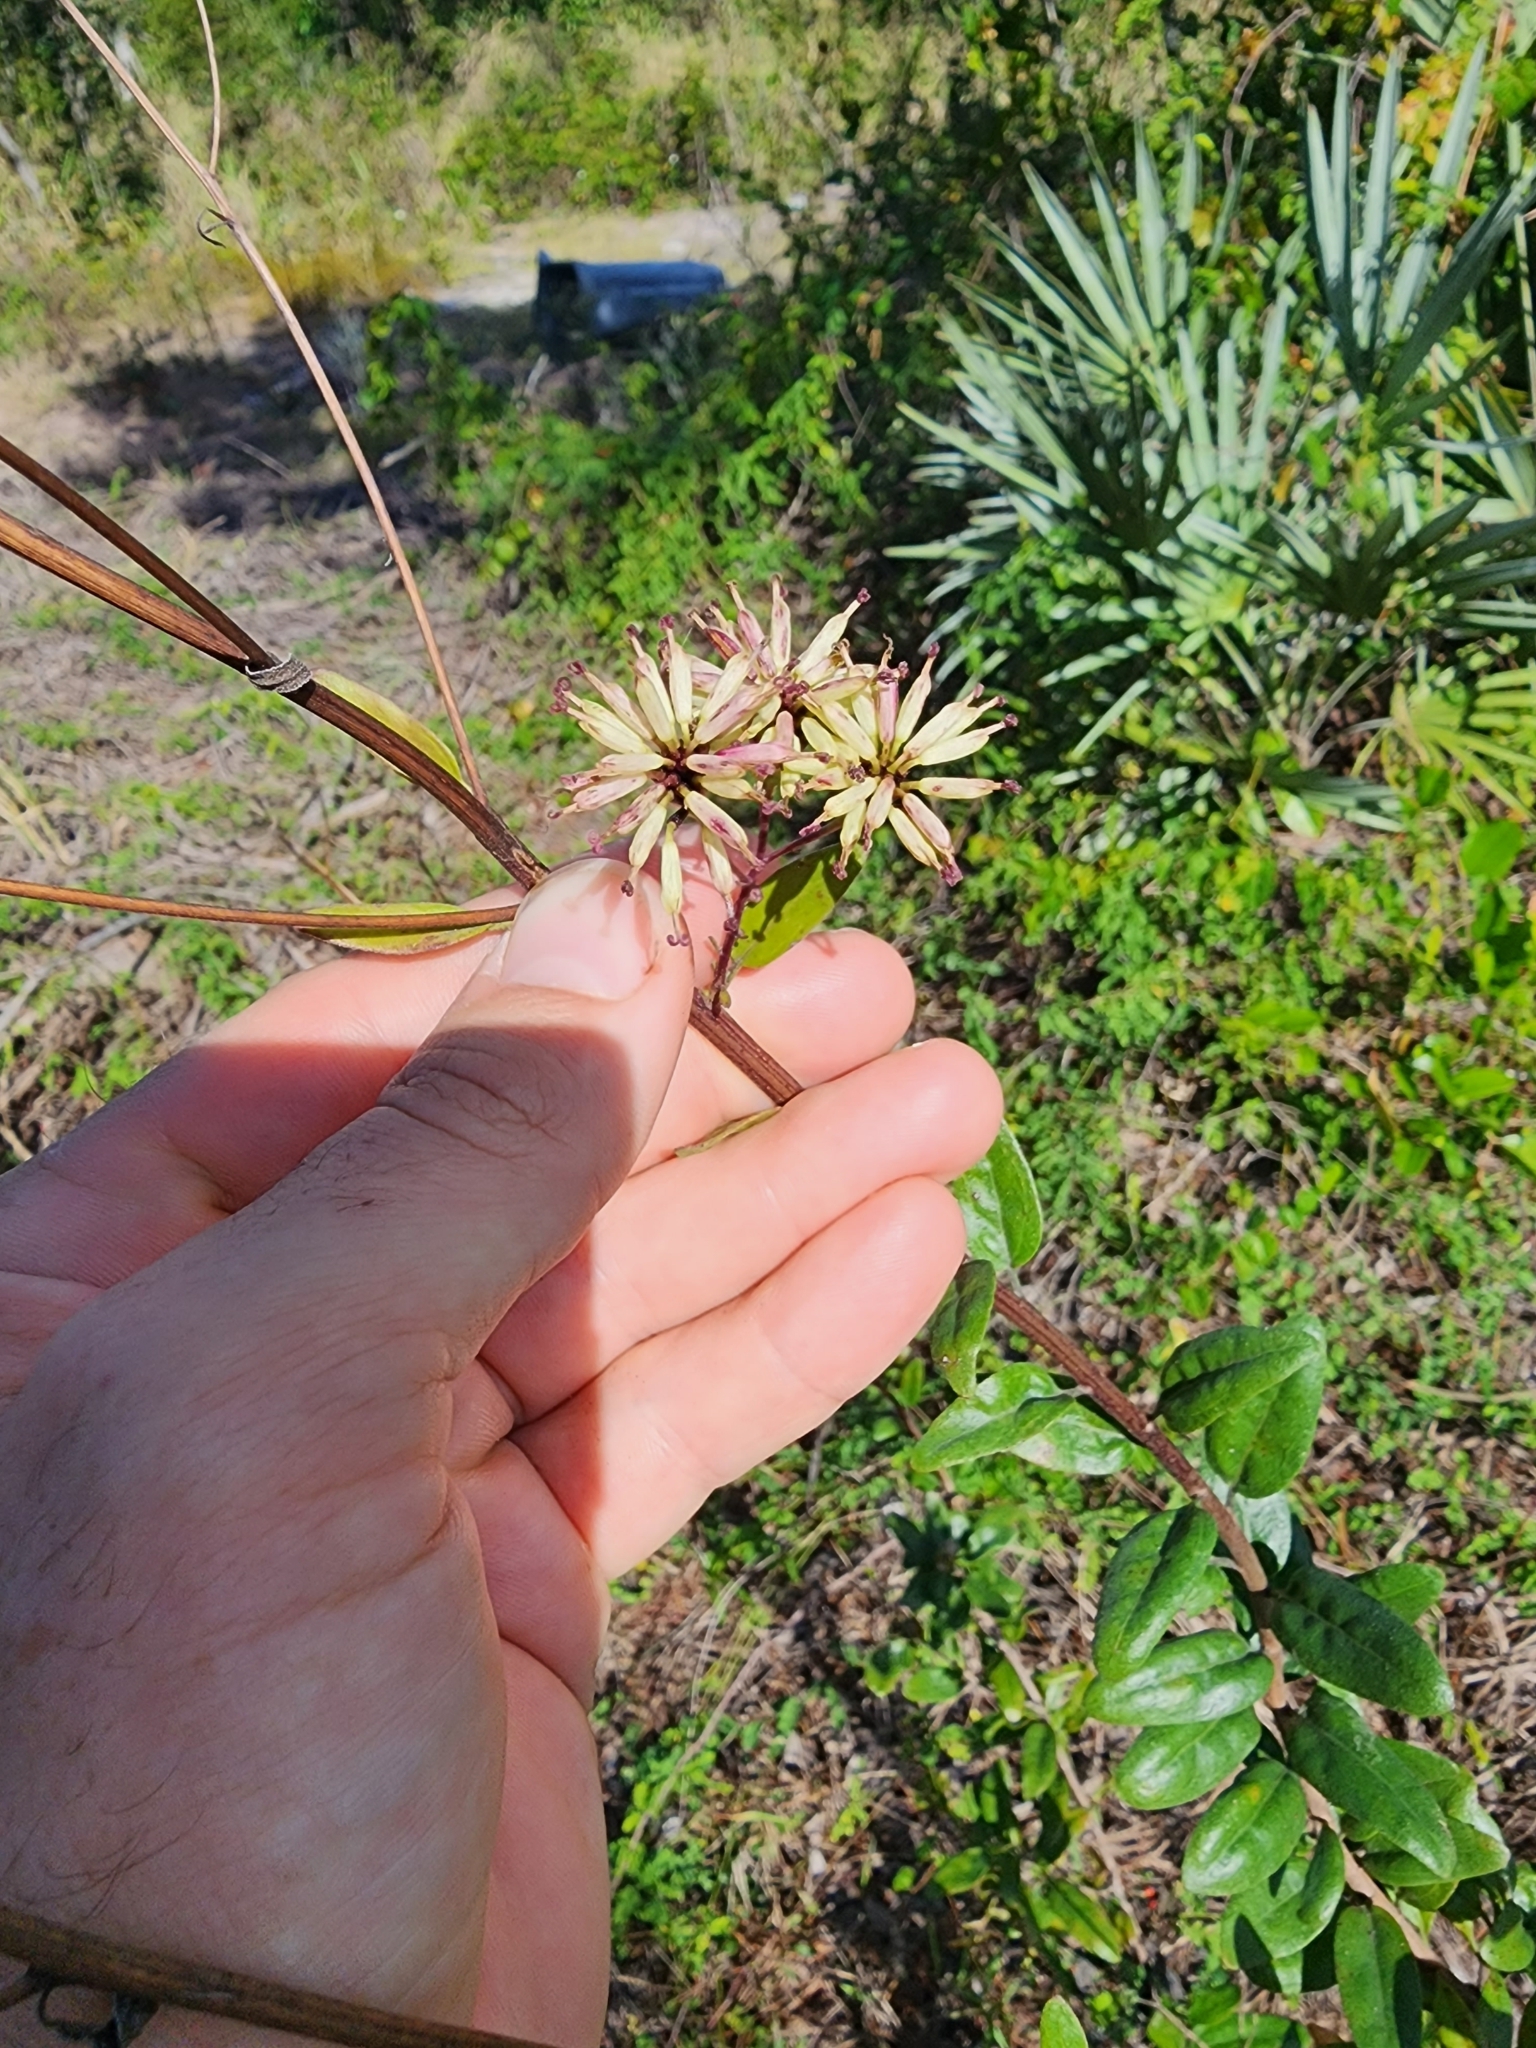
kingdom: Plantae
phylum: Tracheophyta
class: Magnoliopsida
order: Asterales
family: Asteraceae
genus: Palafoxia
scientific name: Palafoxia feayi
